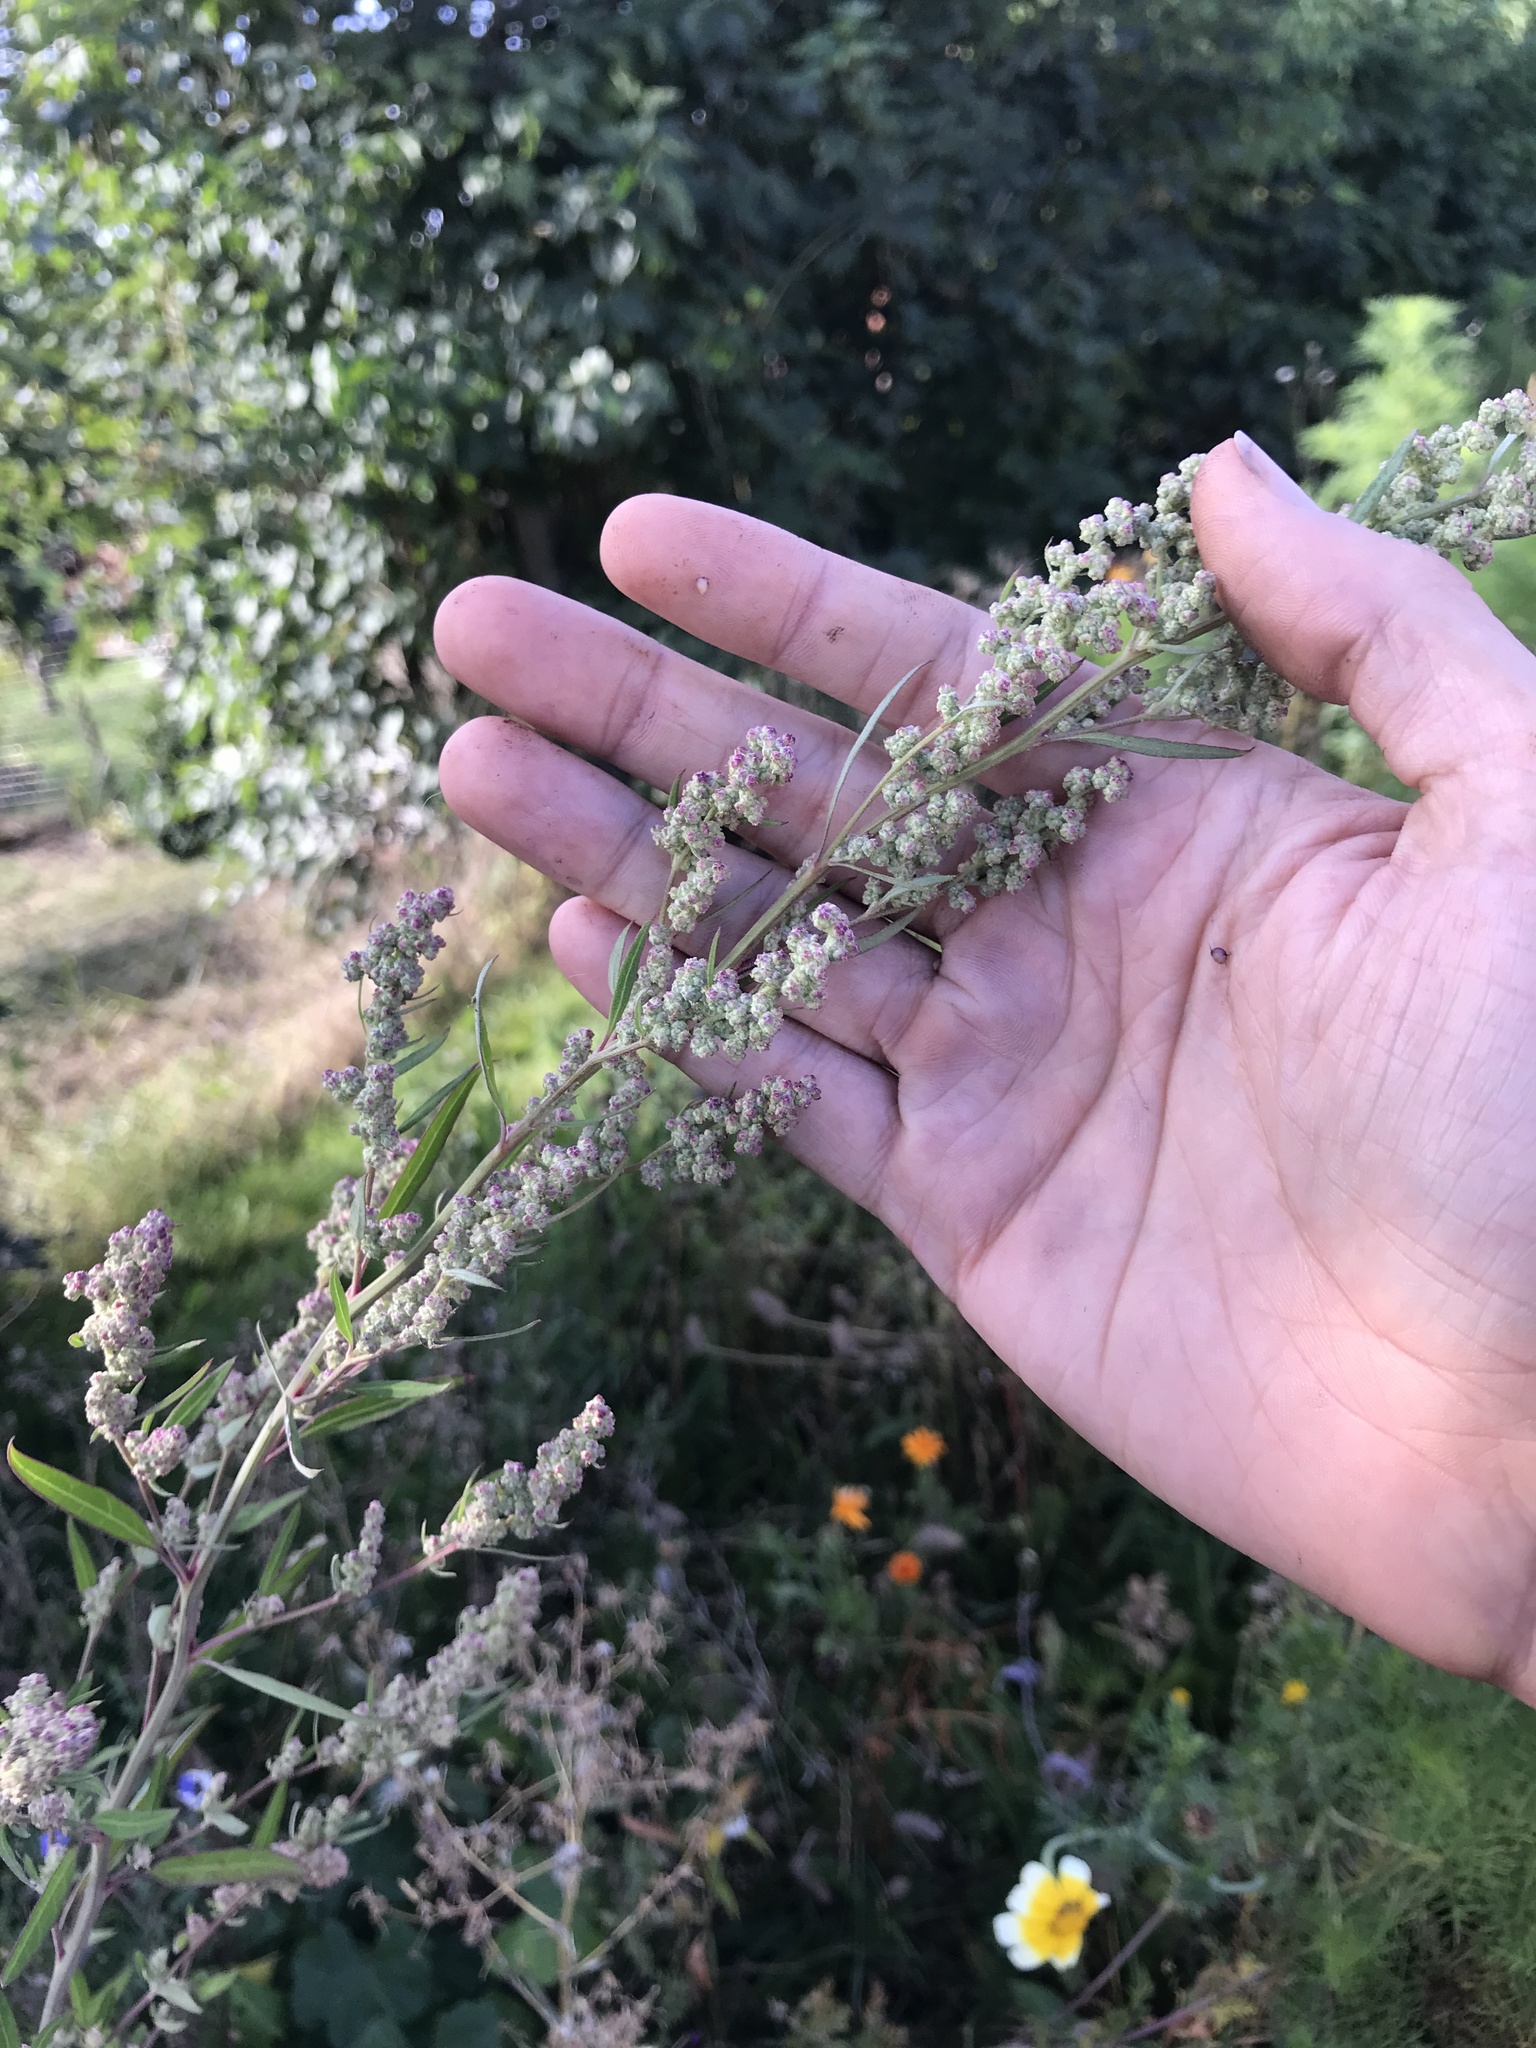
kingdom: Plantae
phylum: Tracheophyta
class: Magnoliopsida
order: Caryophyllales
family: Amaranthaceae
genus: Chenopodium
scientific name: Chenopodium album
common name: Fat-hen
